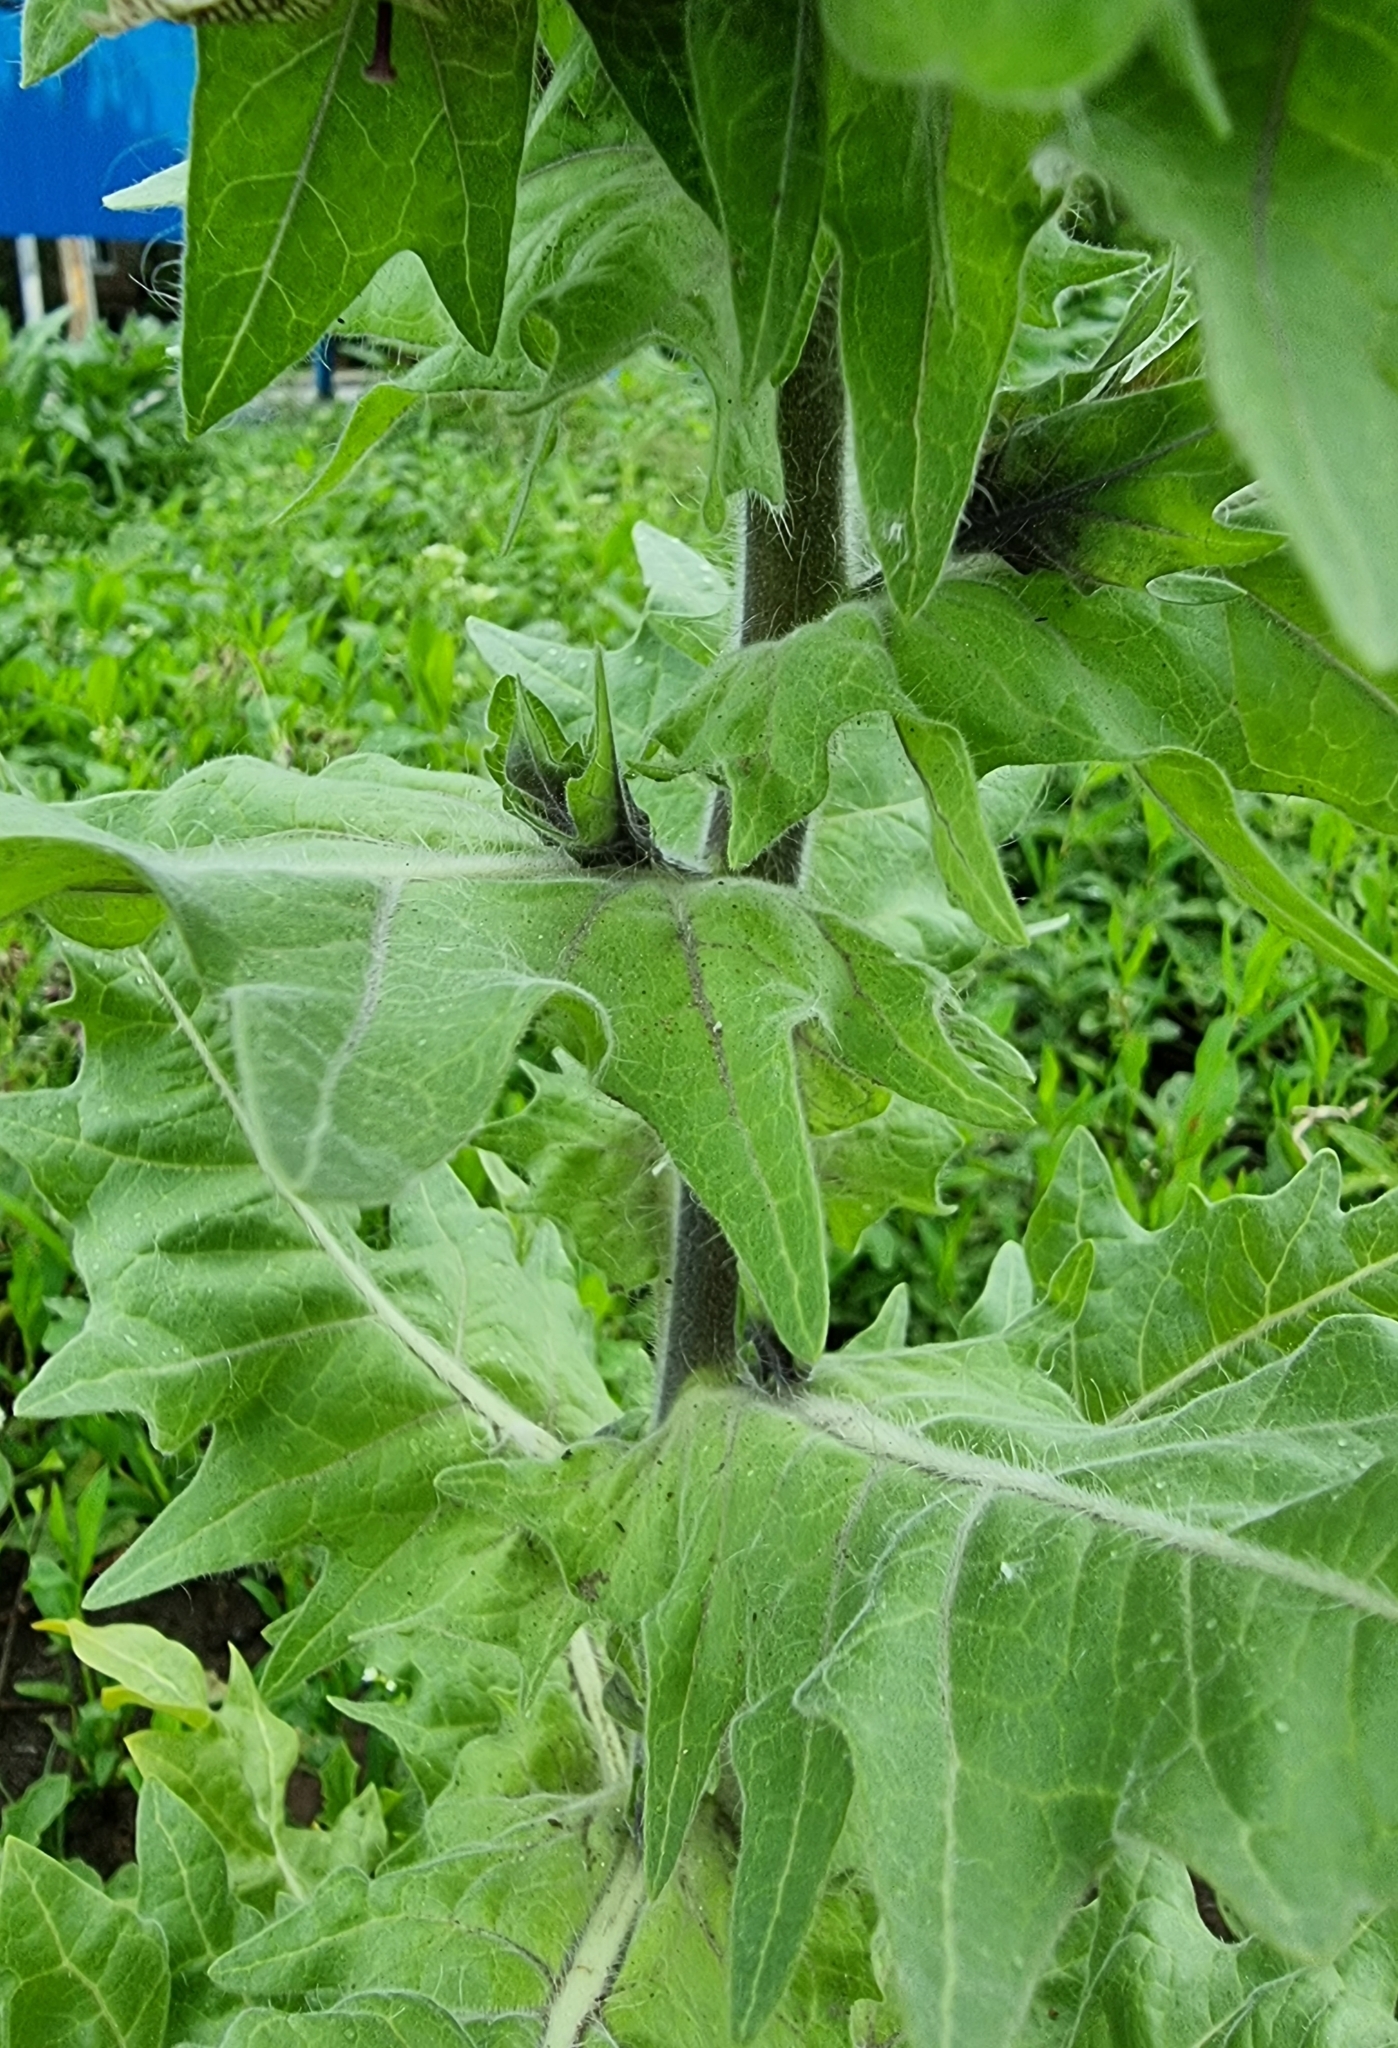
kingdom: Plantae
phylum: Tracheophyta
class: Magnoliopsida
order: Solanales
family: Solanaceae
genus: Hyoscyamus
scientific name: Hyoscyamus niger
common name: Henbane
